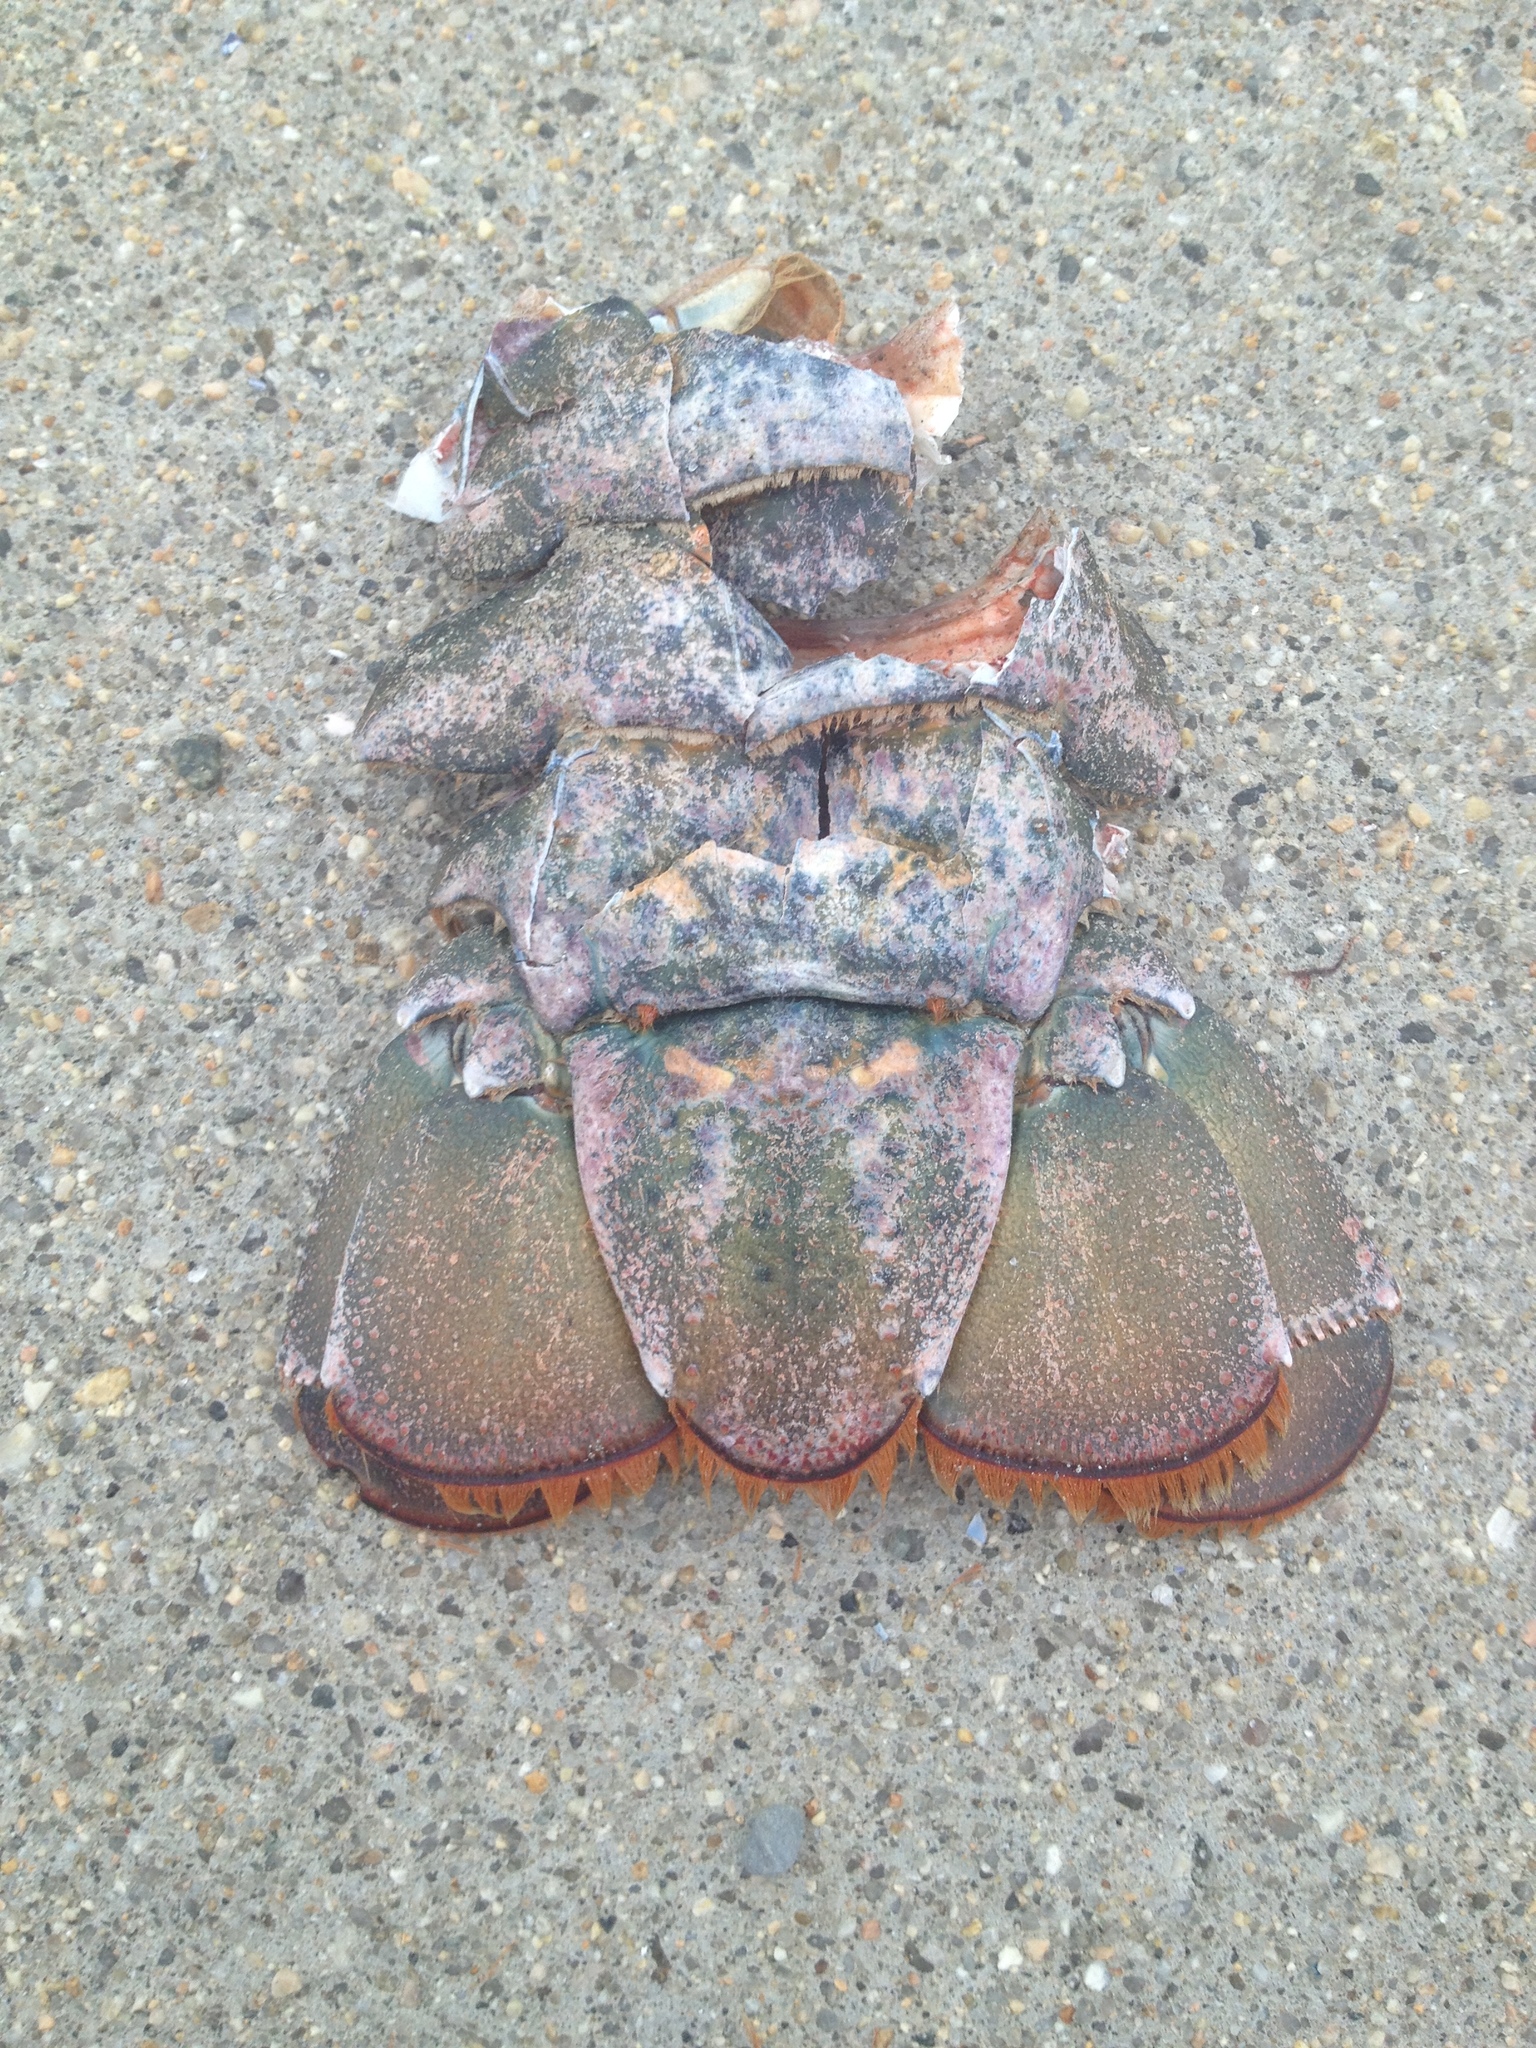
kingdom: Animalia
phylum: Arthropoda
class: Malacostraca
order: Decapoda
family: Nephropidae
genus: Homarus
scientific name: Homarus americanus
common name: American lobster
